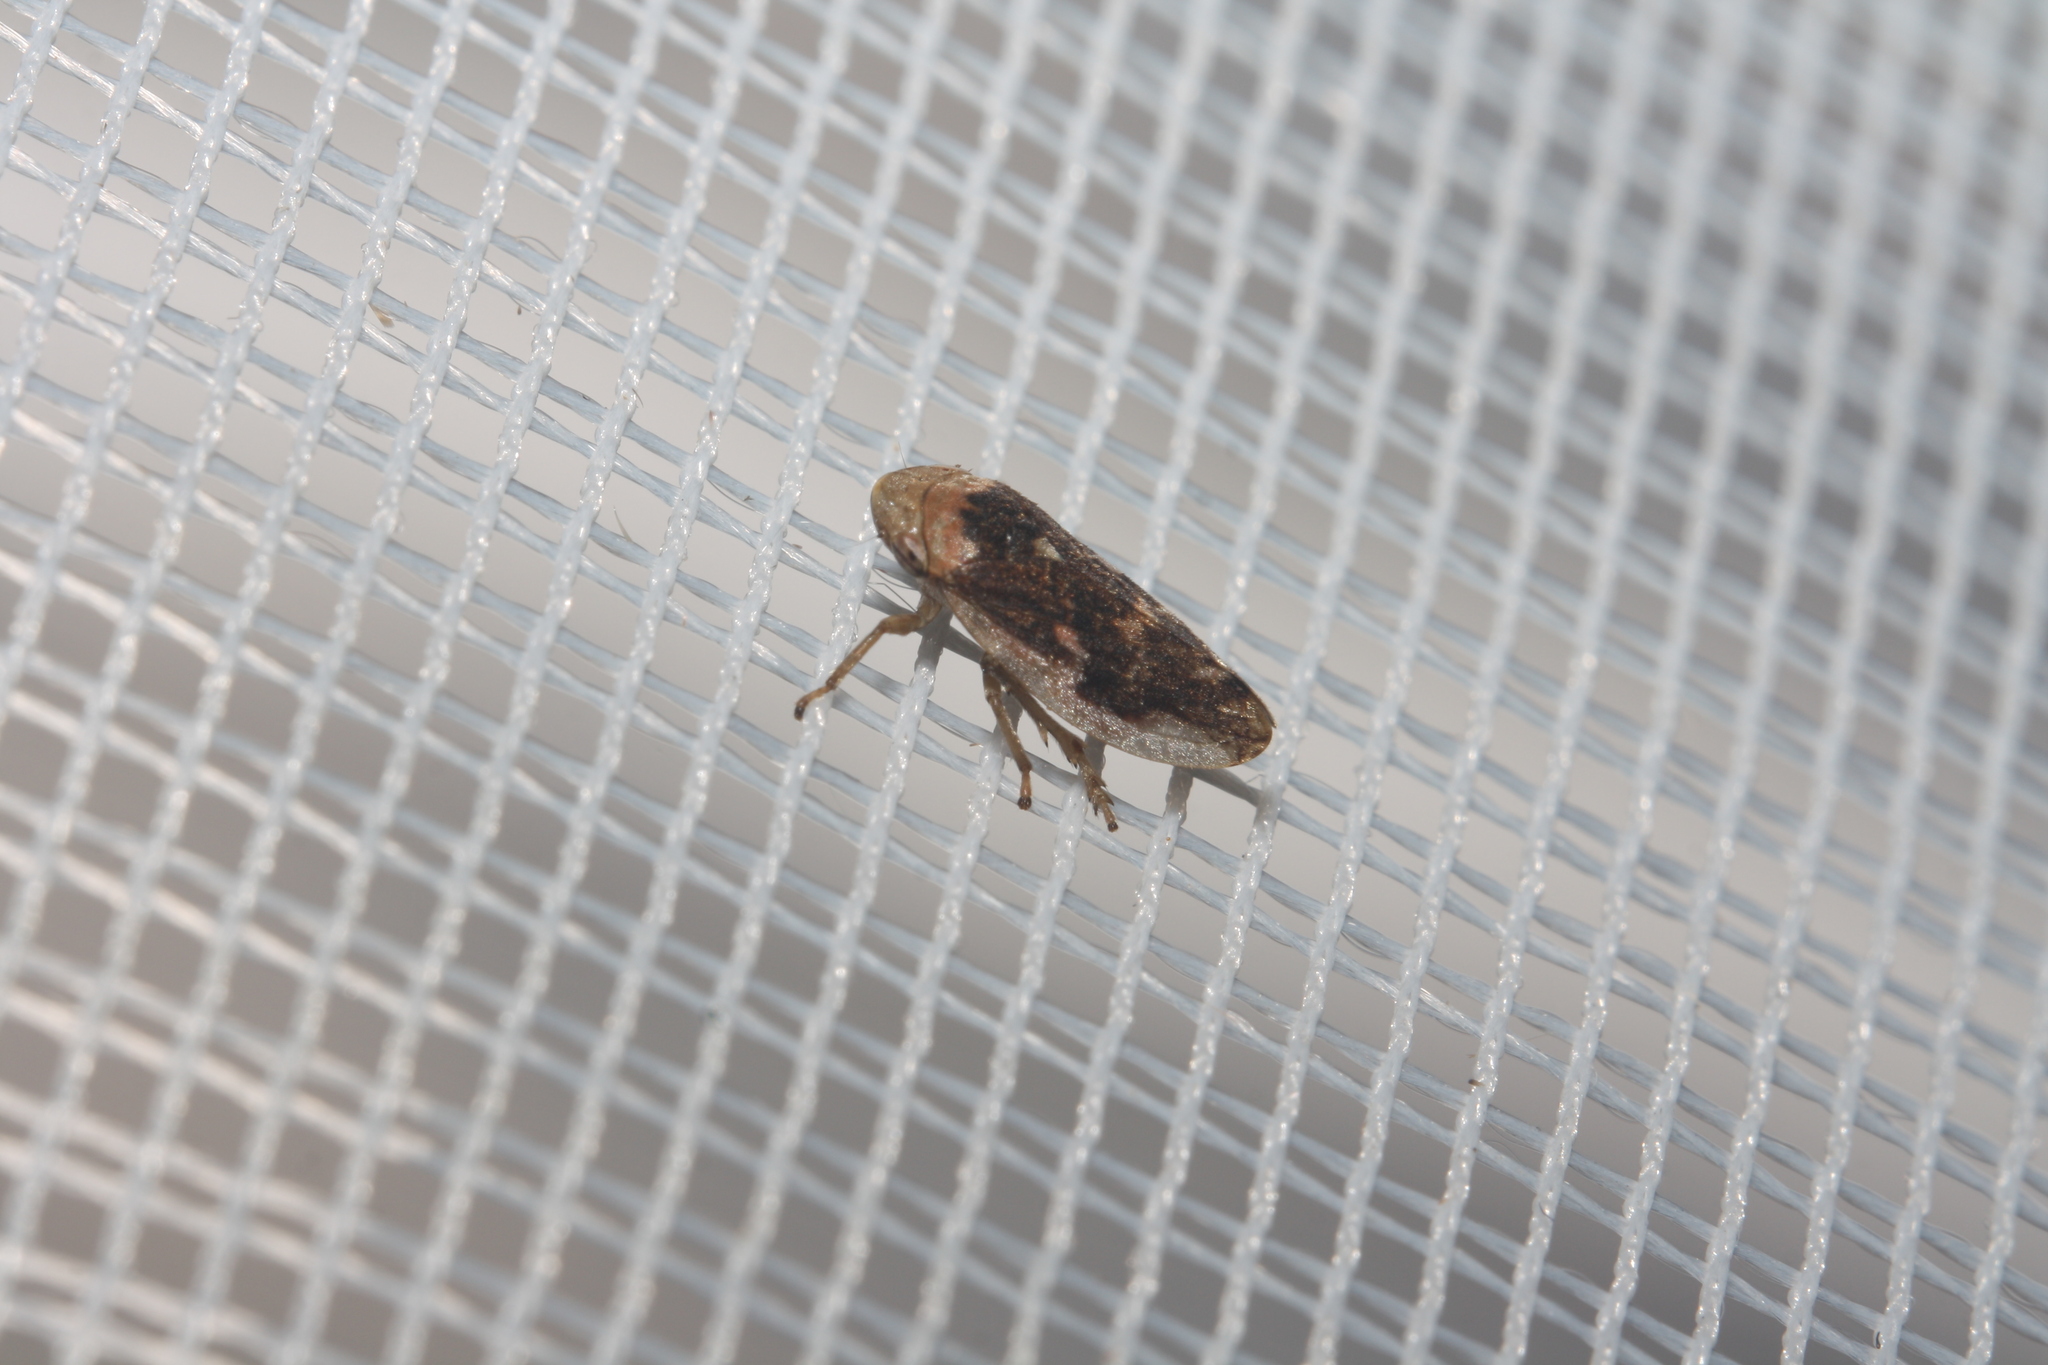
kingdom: Animalia
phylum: Arthropoda
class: Insecta
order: Hemiptera
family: Aphrophoridae
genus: Philaenus
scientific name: Philaenus spumarius
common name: Meadow spittlebug
